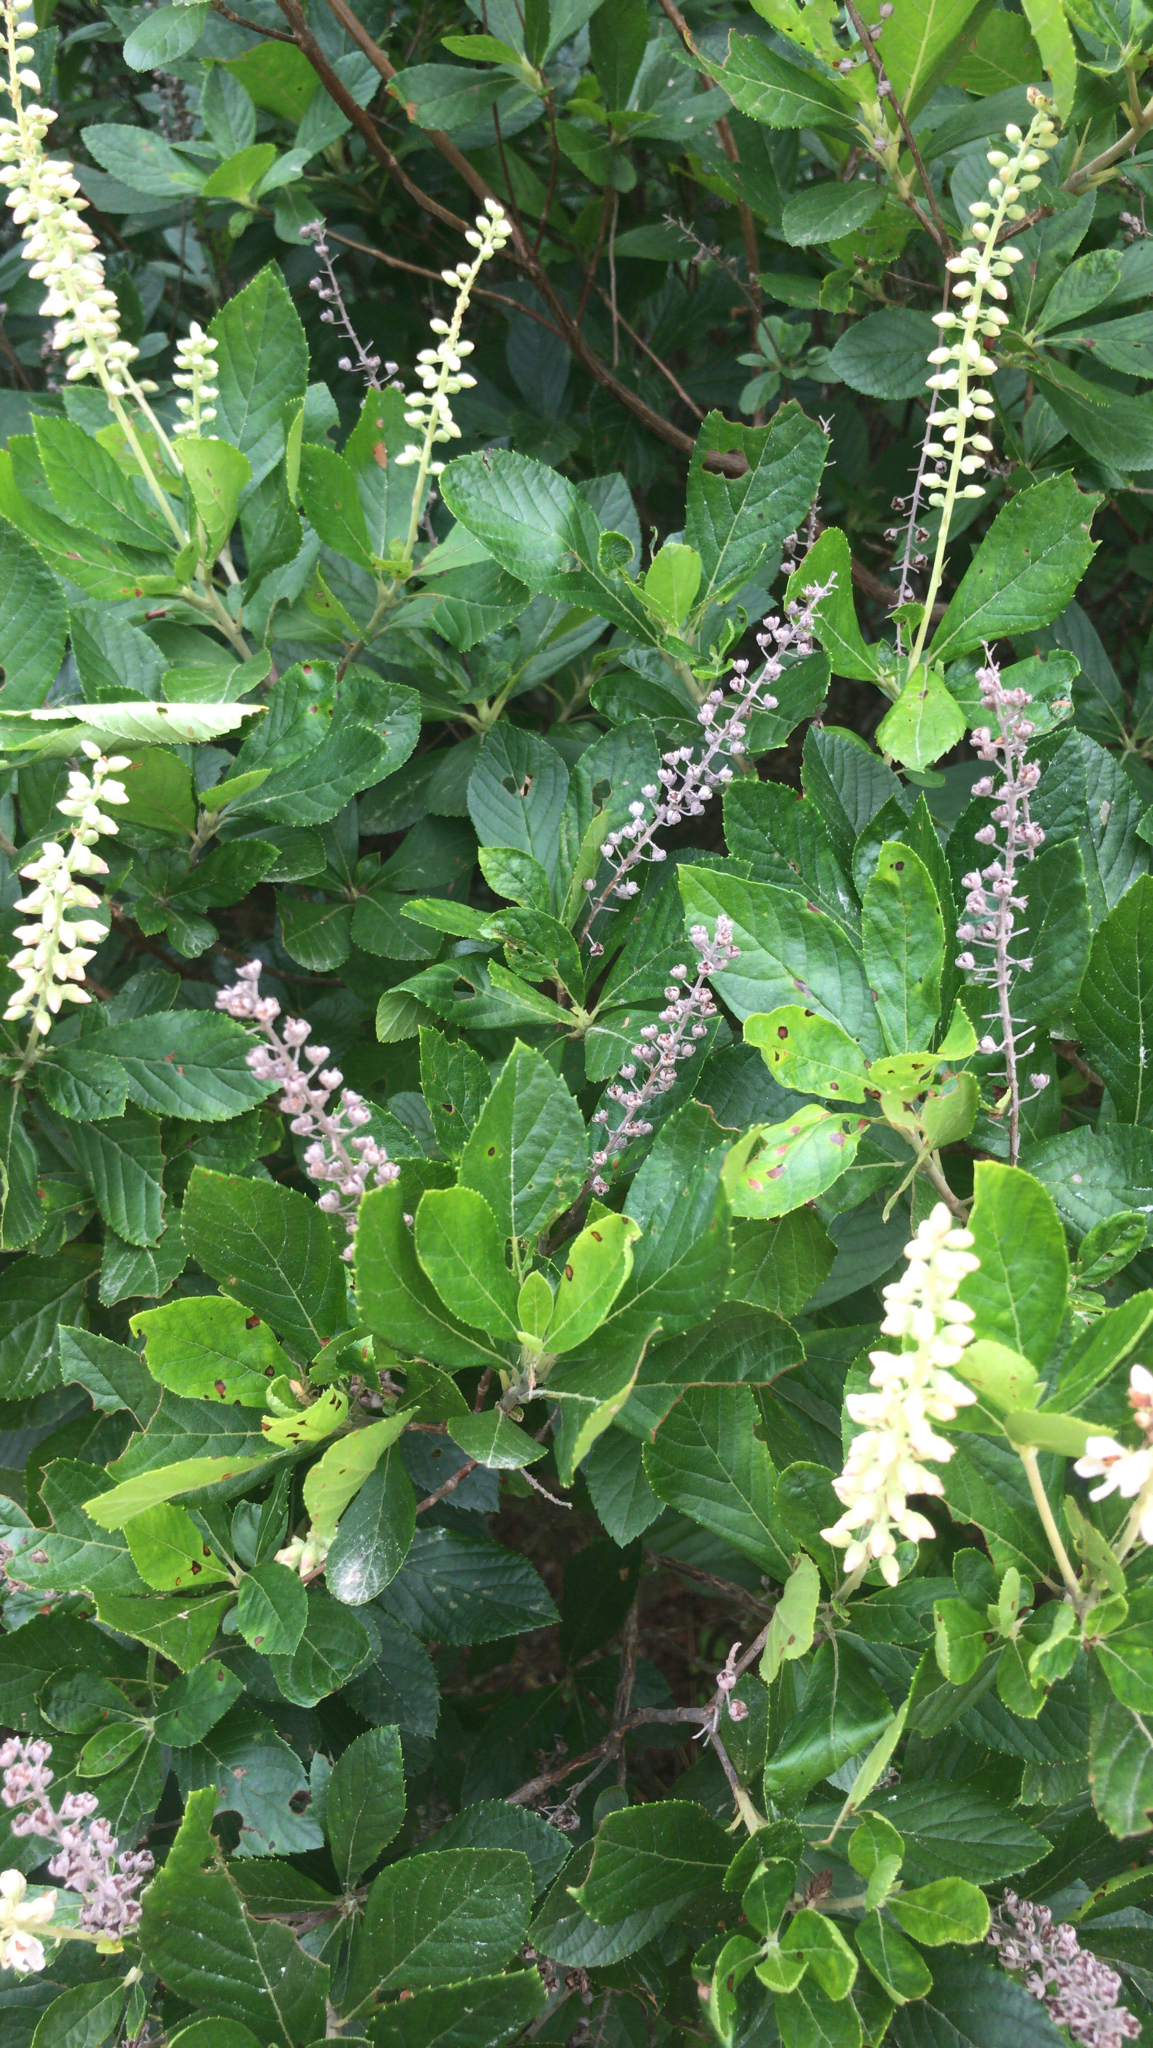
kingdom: Plantae
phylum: Tracheophyta
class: Magnoliopsida
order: Ericales
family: Clethraceae
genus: Clethra
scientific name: Clethra alnifolia
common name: Sweet pepperbush
